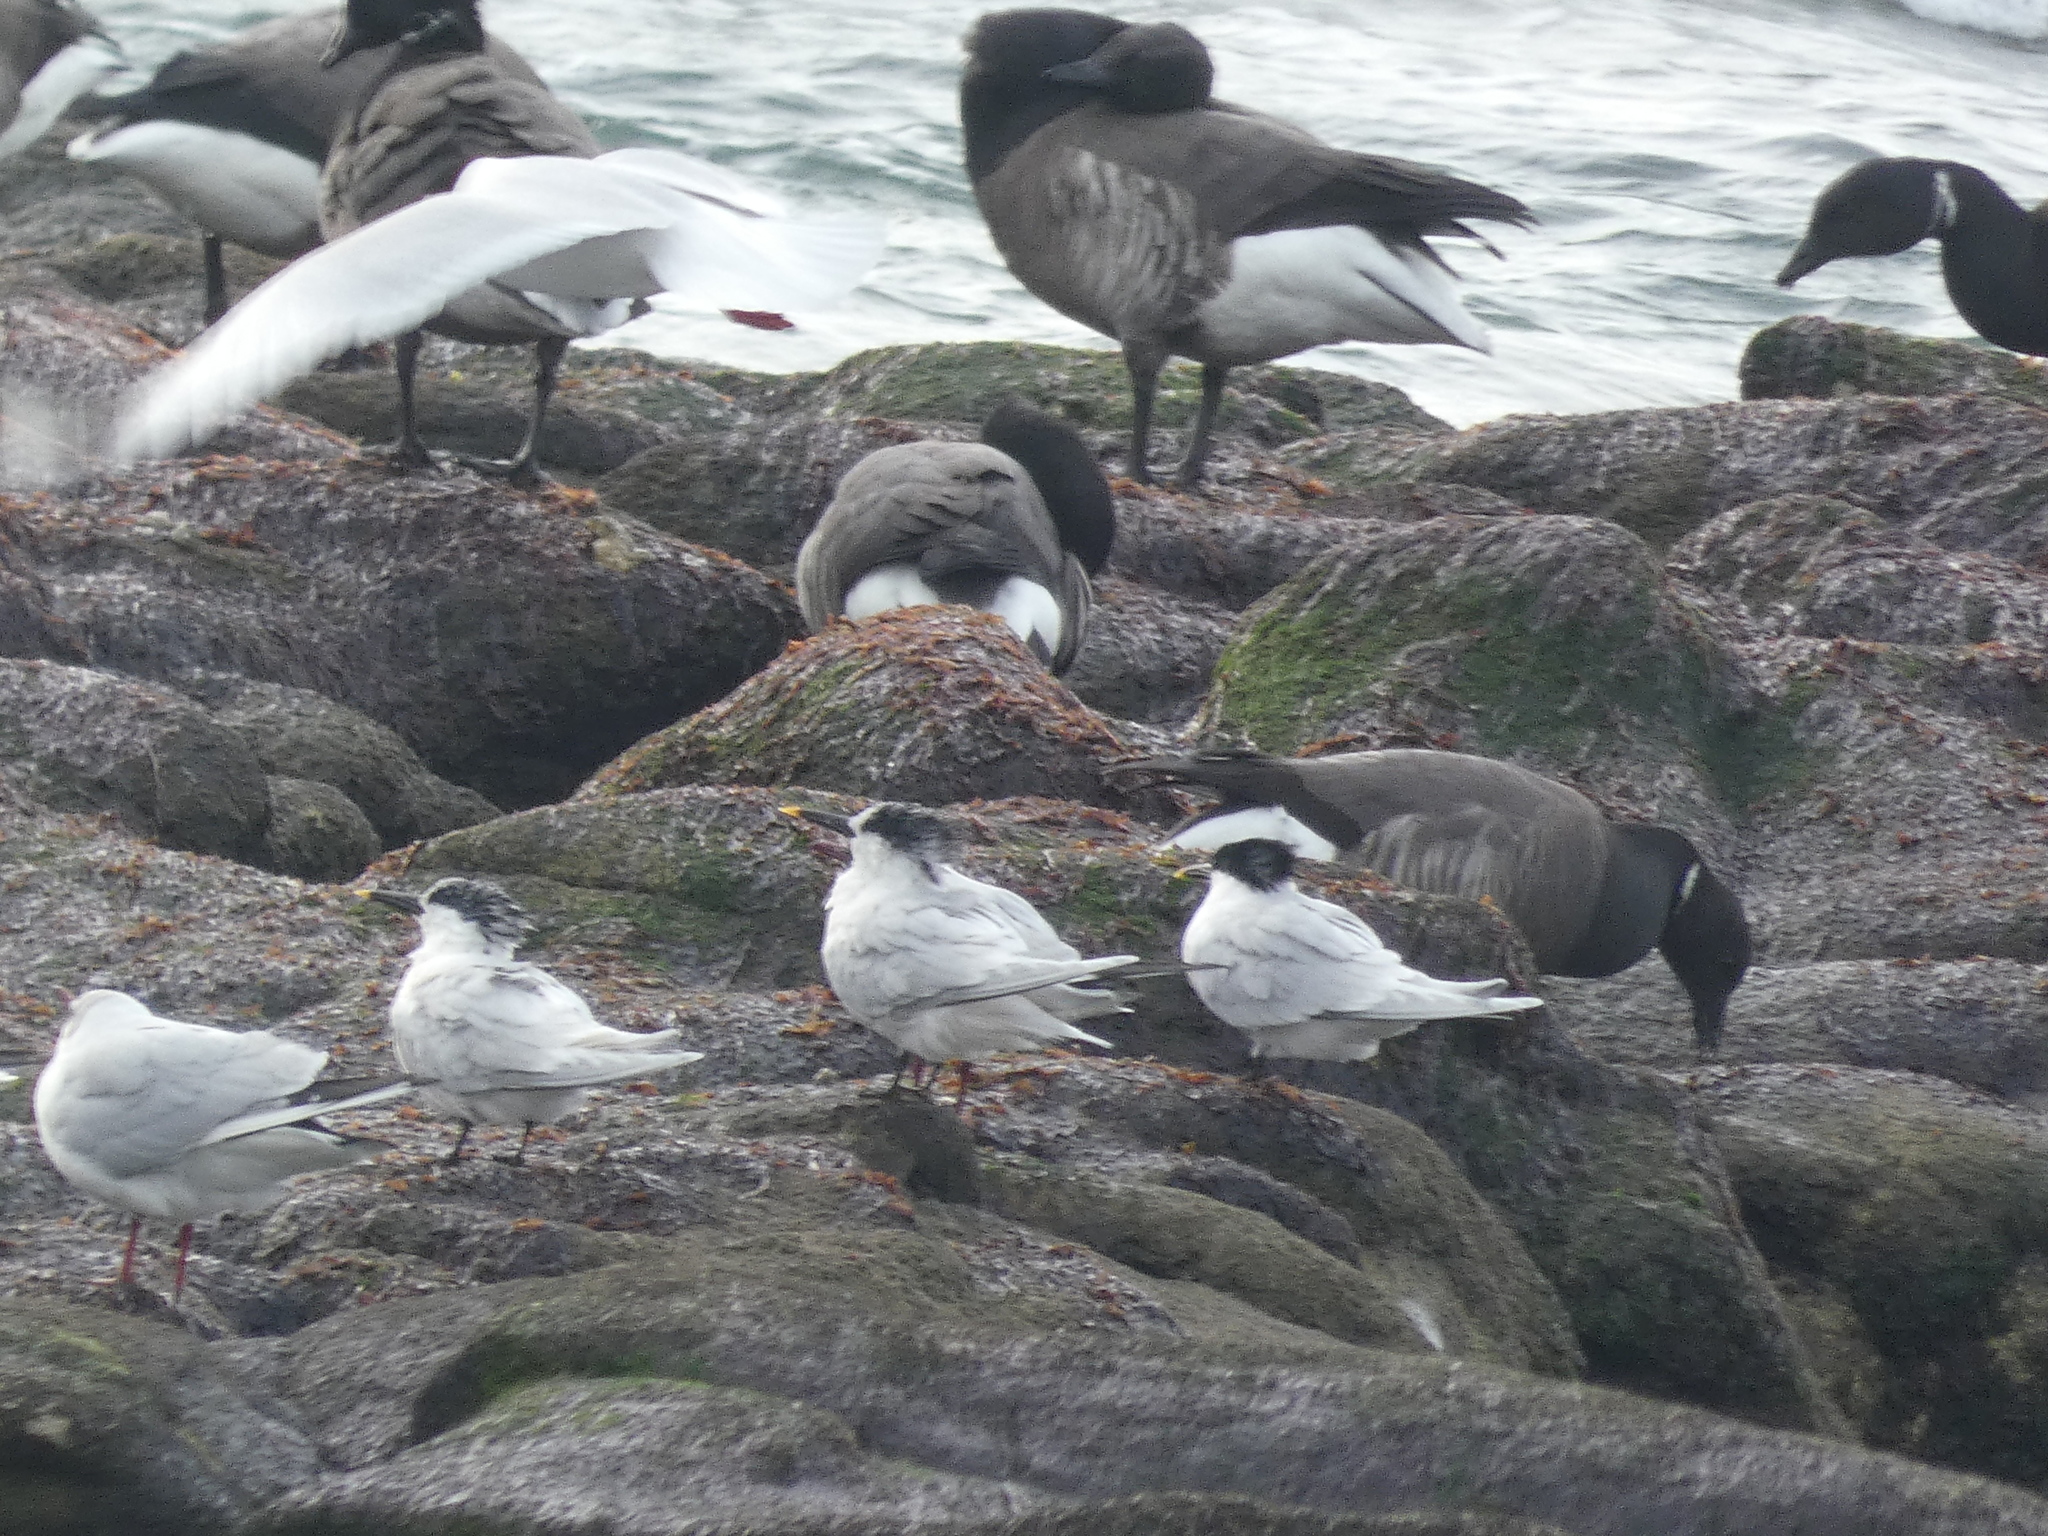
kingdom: Animalia
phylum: Chordata
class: Aves
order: Charadriiformes
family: Laridae
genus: Thalasseus
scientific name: Thalasseus sandvicensis
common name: Sandwich tern
